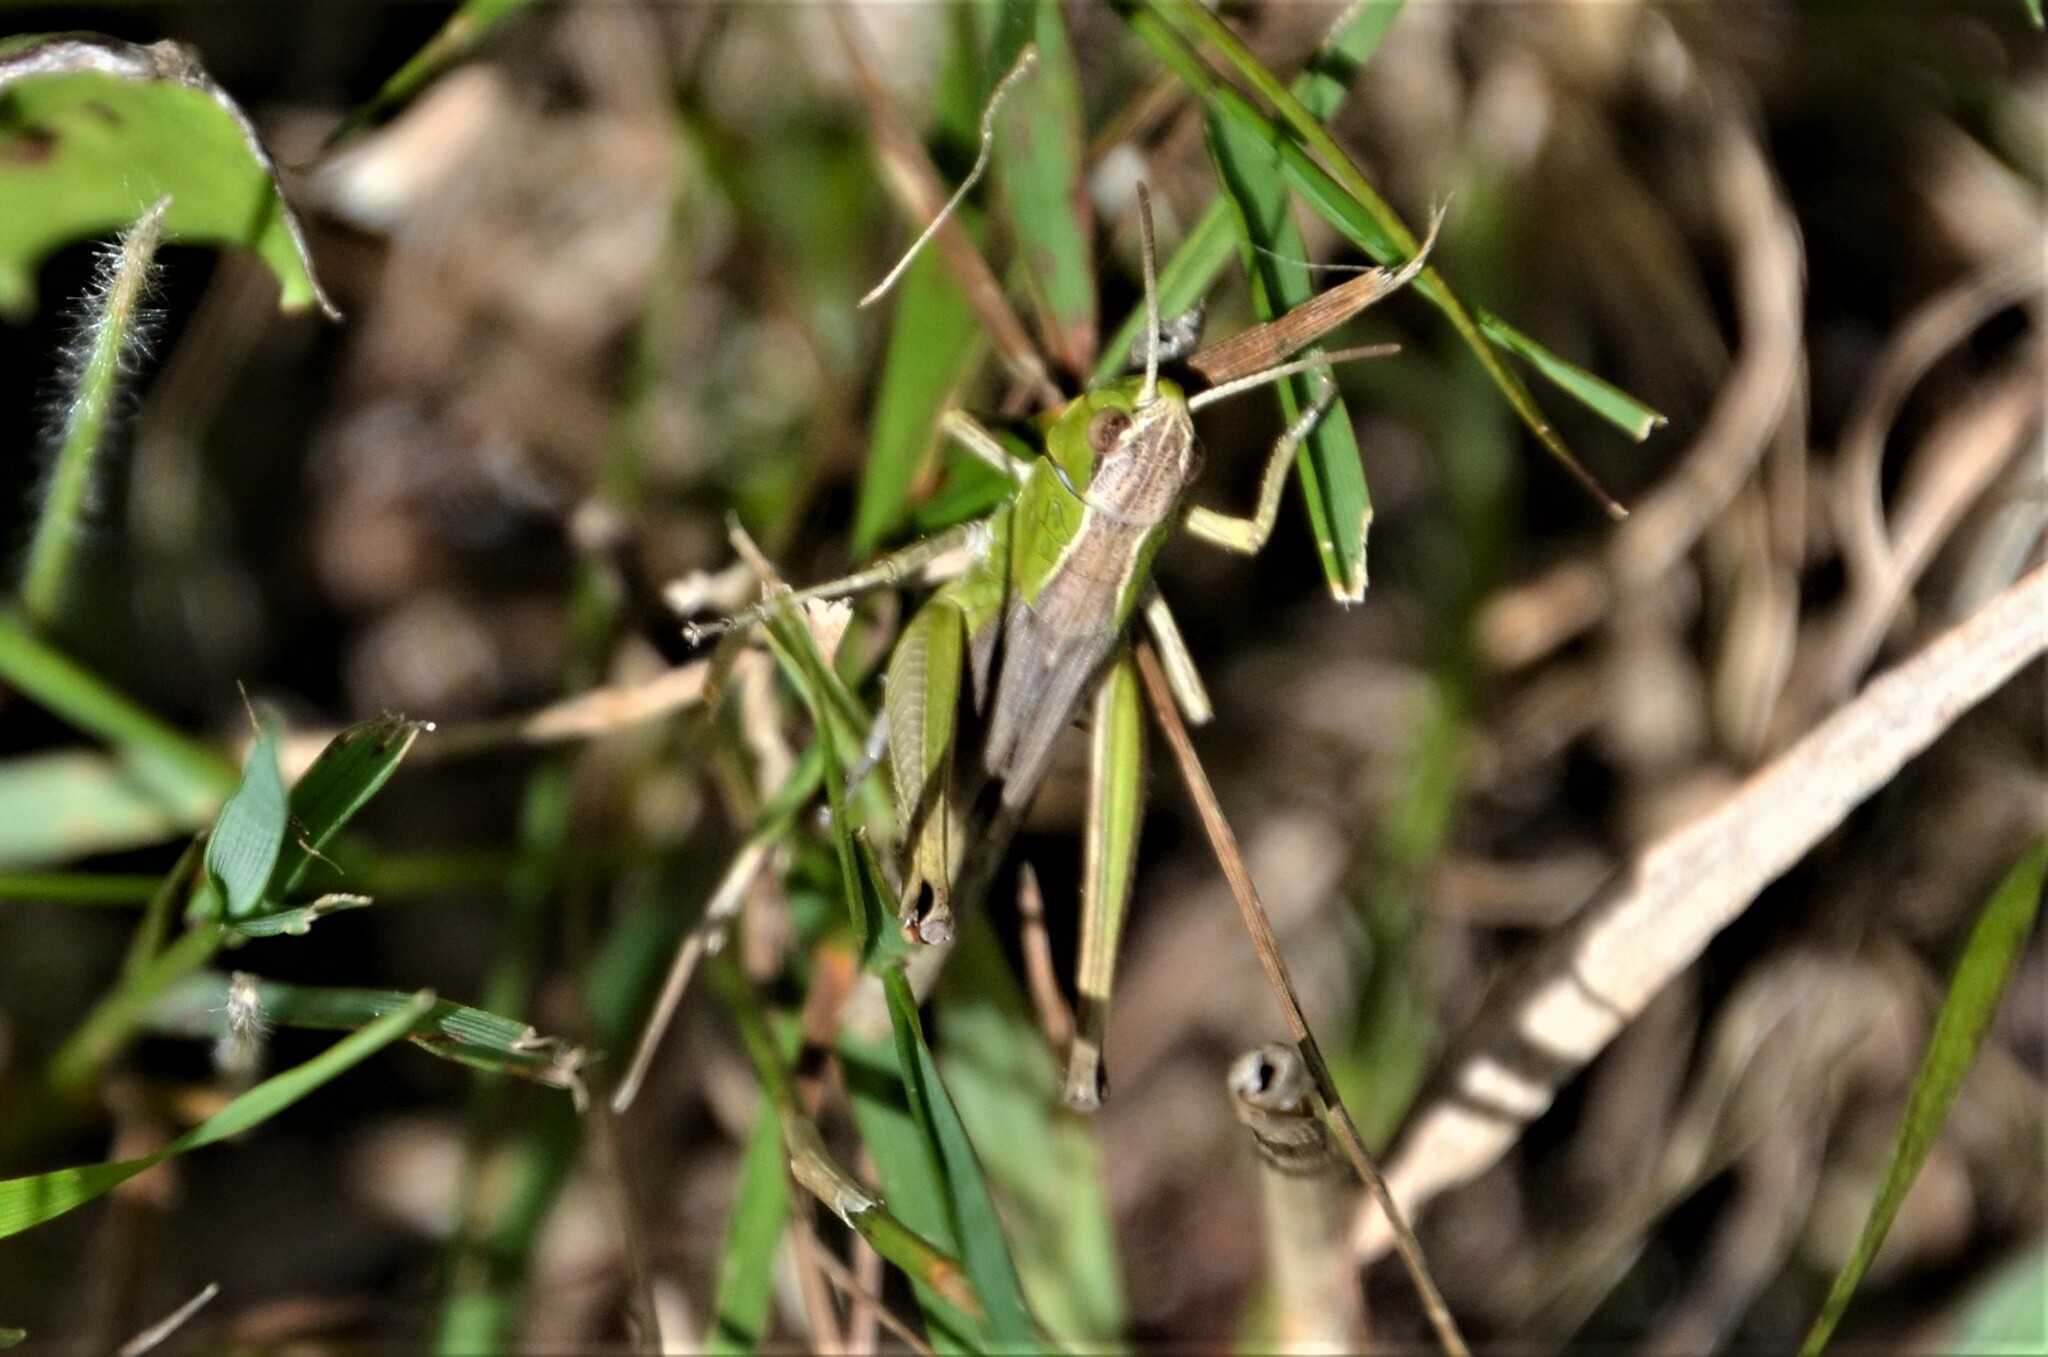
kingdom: Animalia
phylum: Arthropoda
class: Insecta
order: Orthoptera
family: Acrididae
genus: Pseudochorthippus
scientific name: Pseudochorthippus parallelus
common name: Meadow grasshopper
